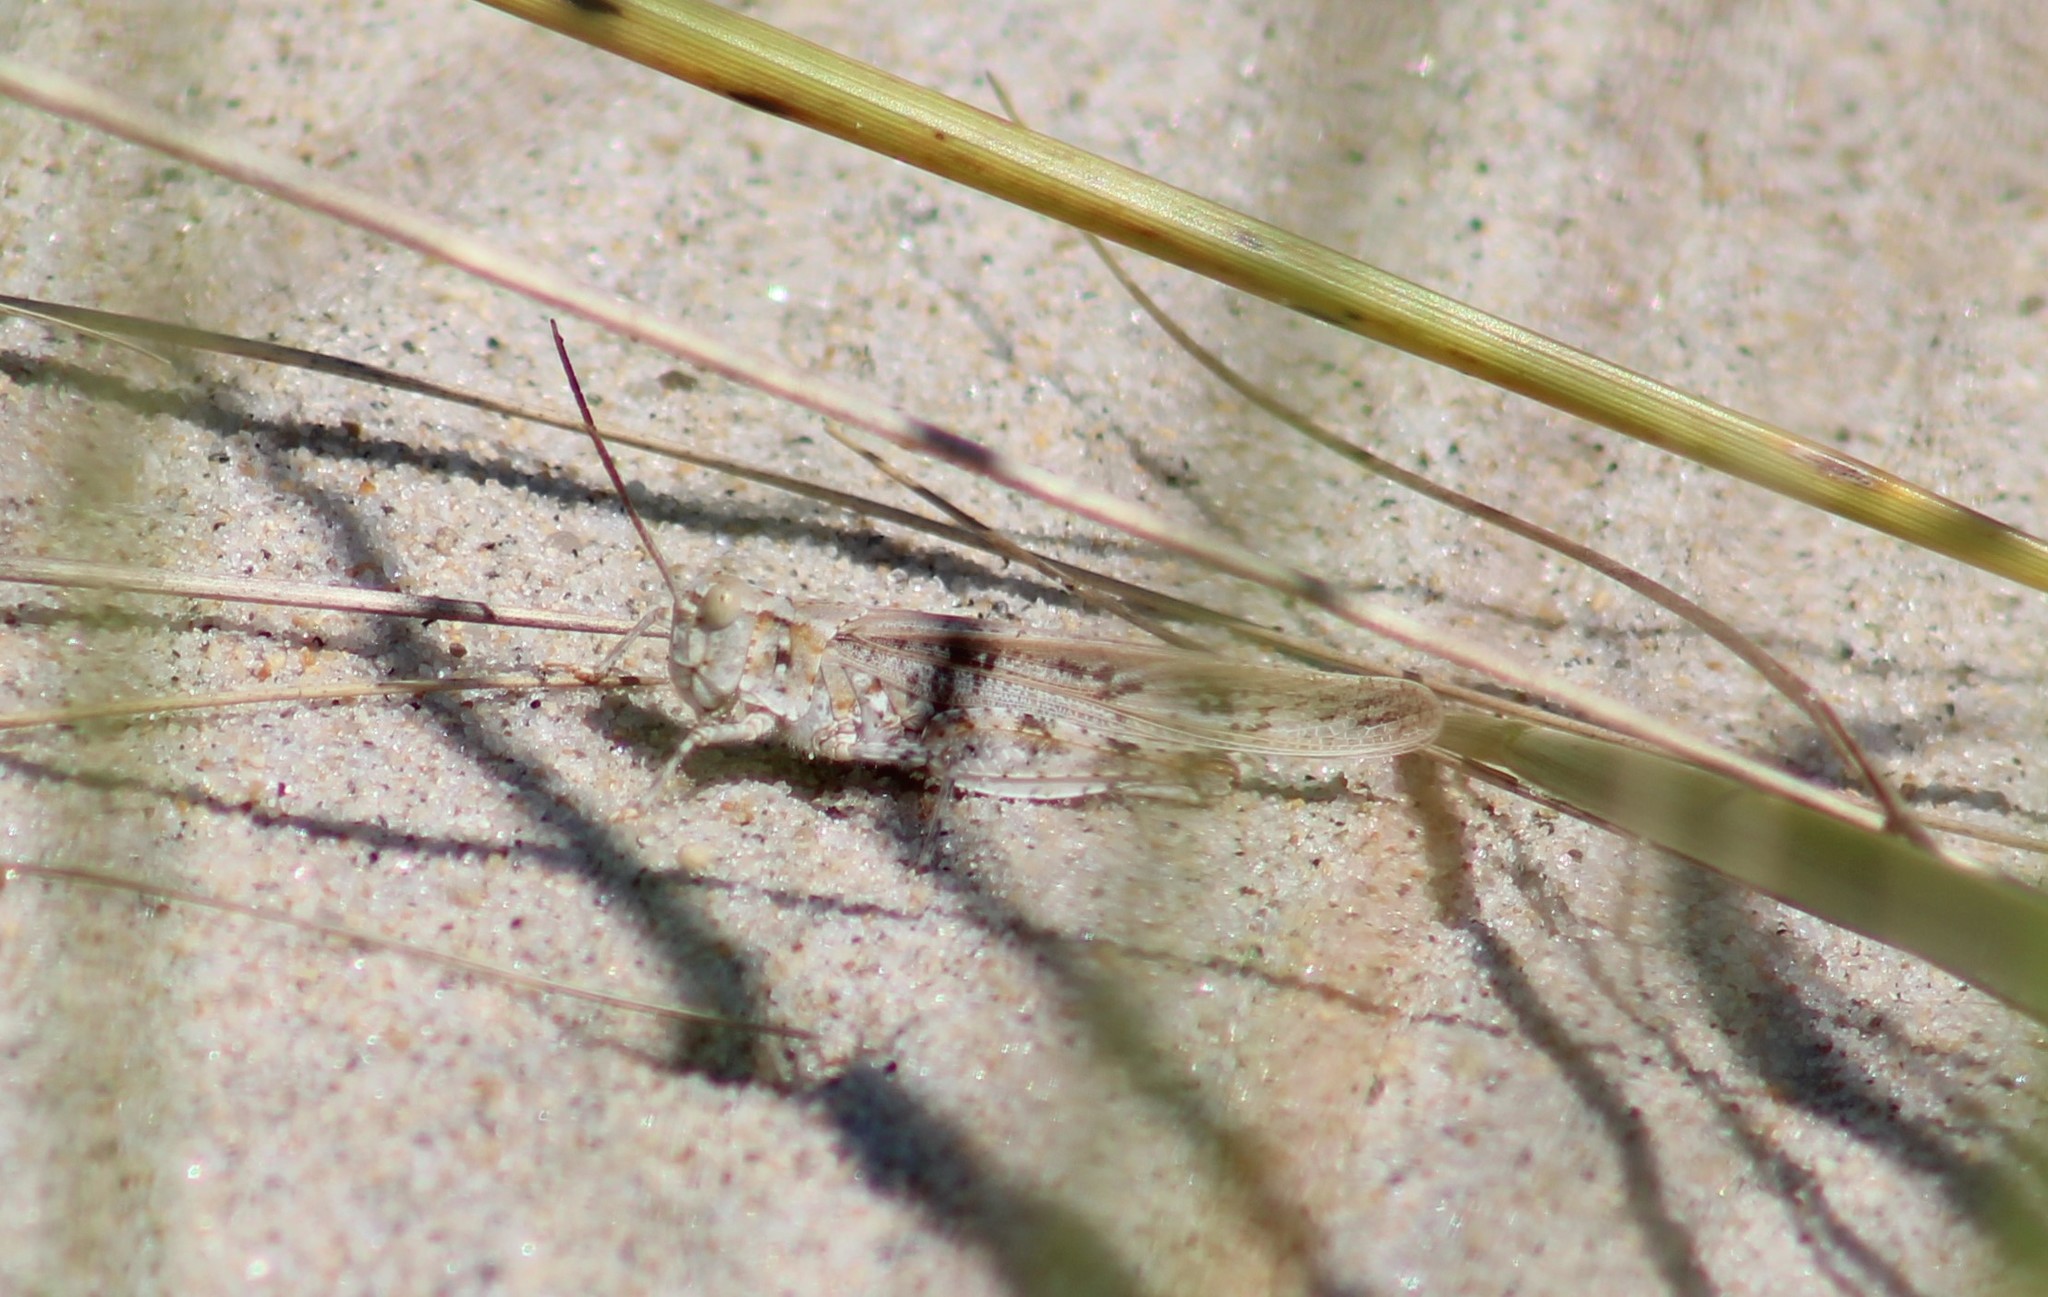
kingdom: Animalia
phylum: Arthropoda
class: Insecta
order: Orthoptera
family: Acrididae
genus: Trimerotropis
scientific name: Trimerotropis maritima
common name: Seaside locust
